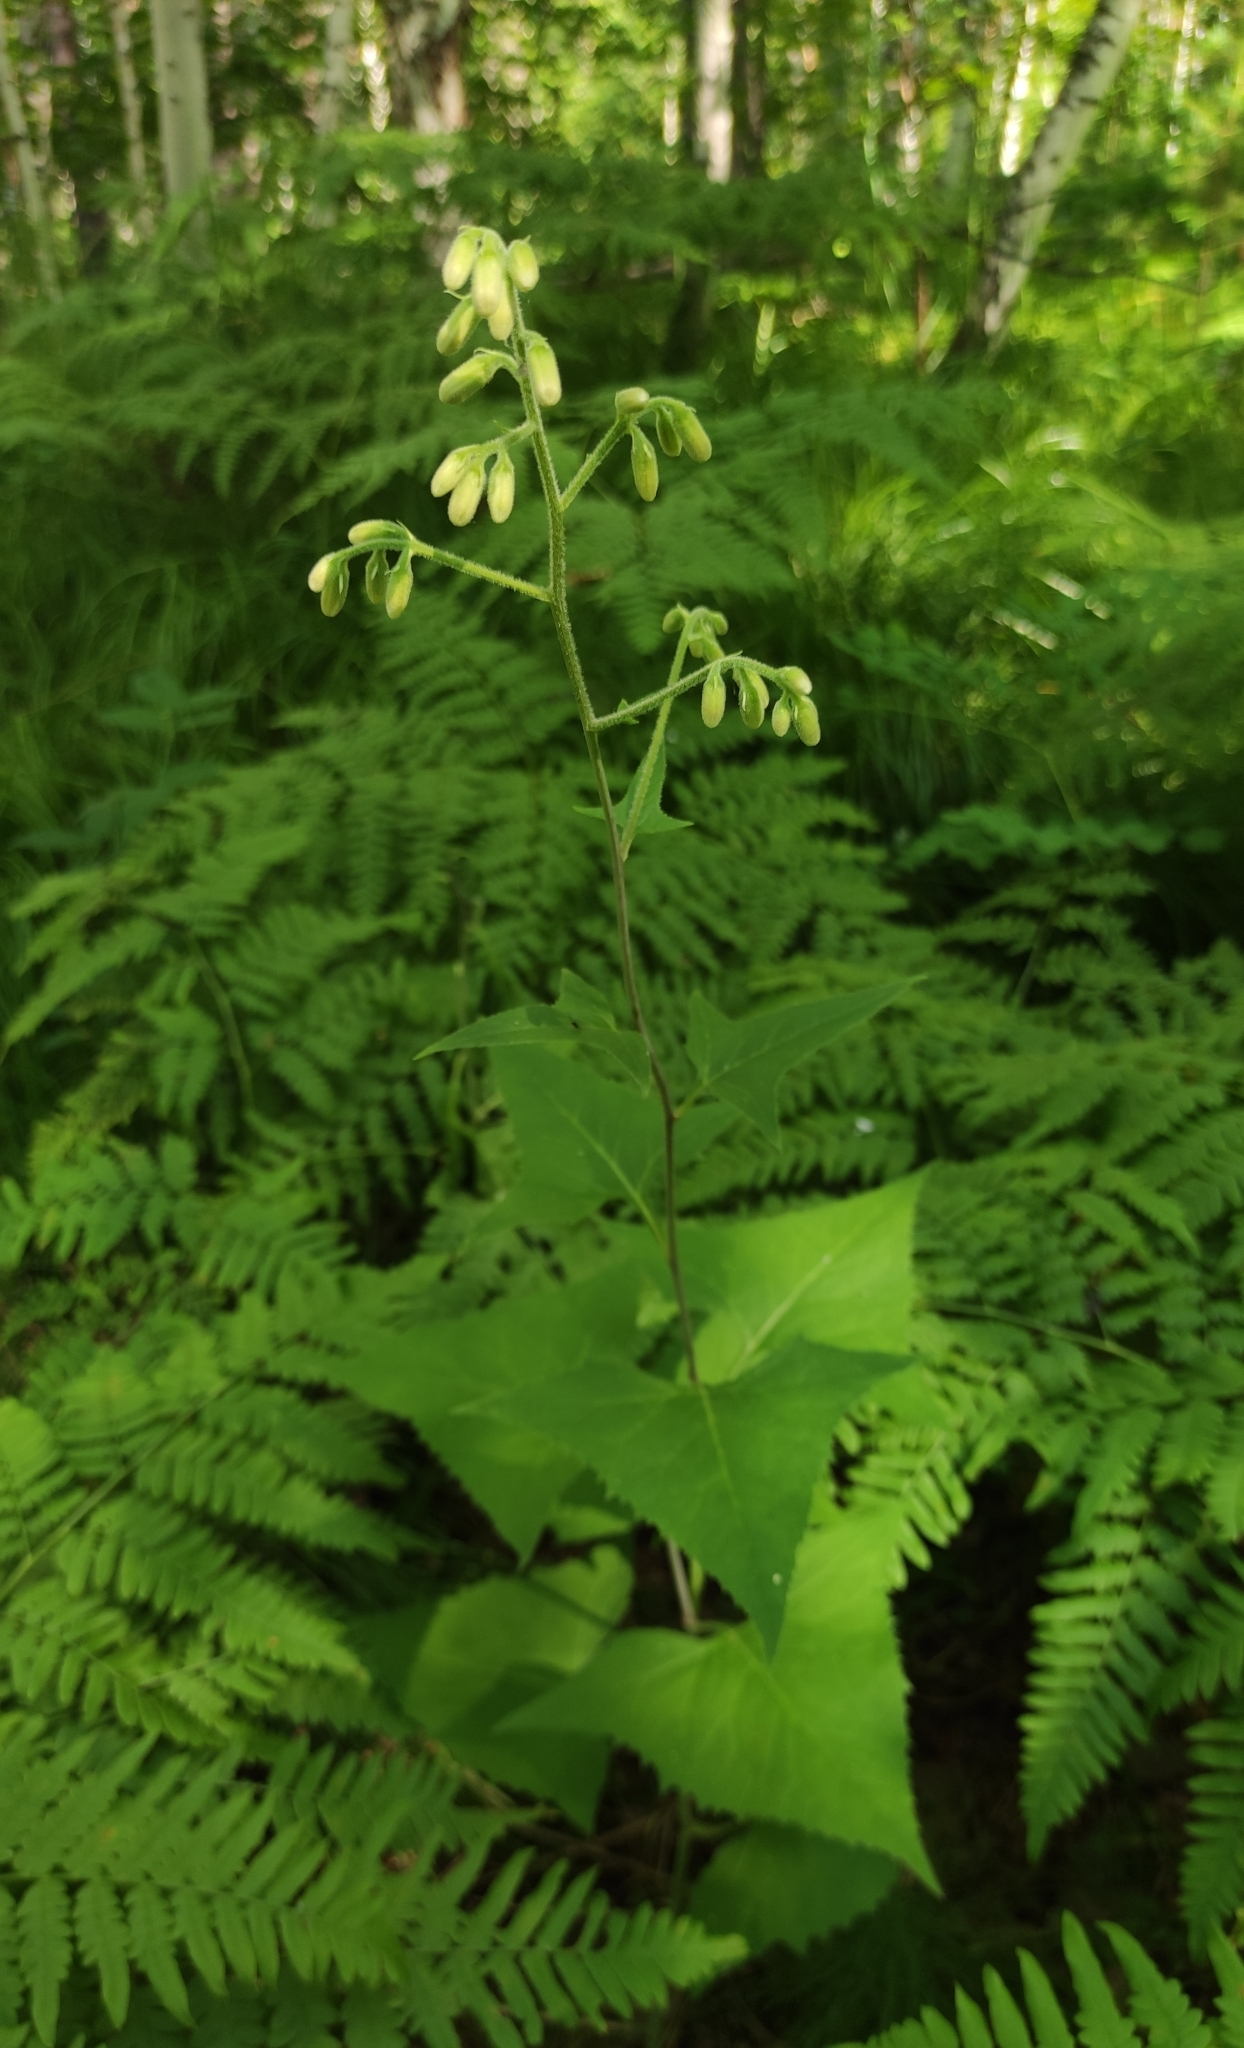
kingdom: Plantae
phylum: Tracheophyta
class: Magnoliopsida
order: Asterales
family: Asteraceae
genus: Parasenecio
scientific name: Parasenecio hastatus
